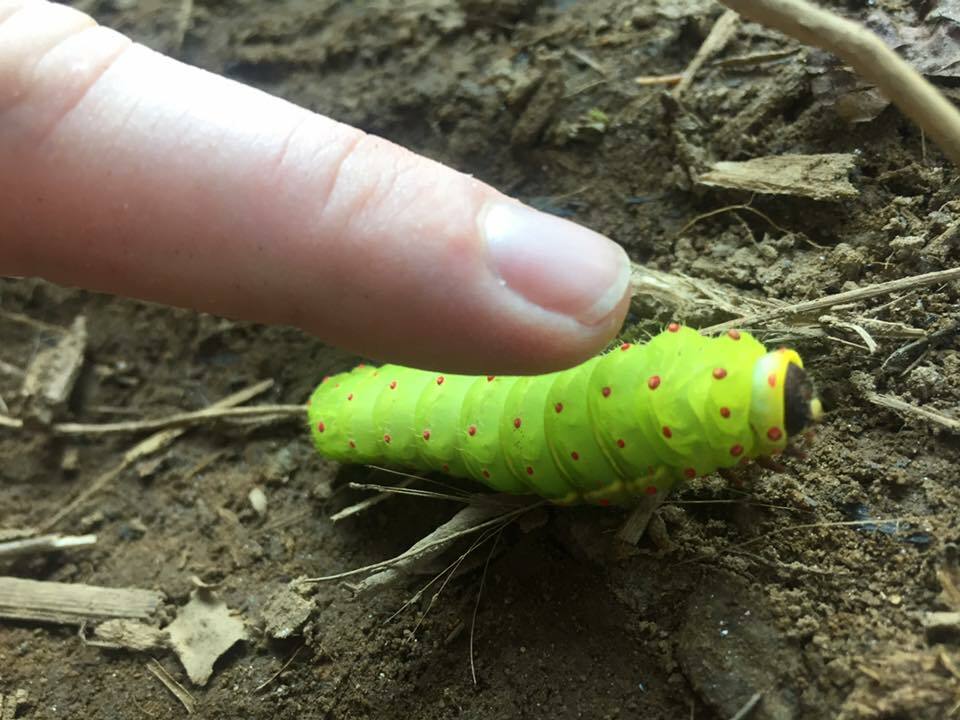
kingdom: Animalia
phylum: Arthropoda
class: Insecta
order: Lepidoptera
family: Saturniidae
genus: Actias
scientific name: Actias luna
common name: Luna moth
